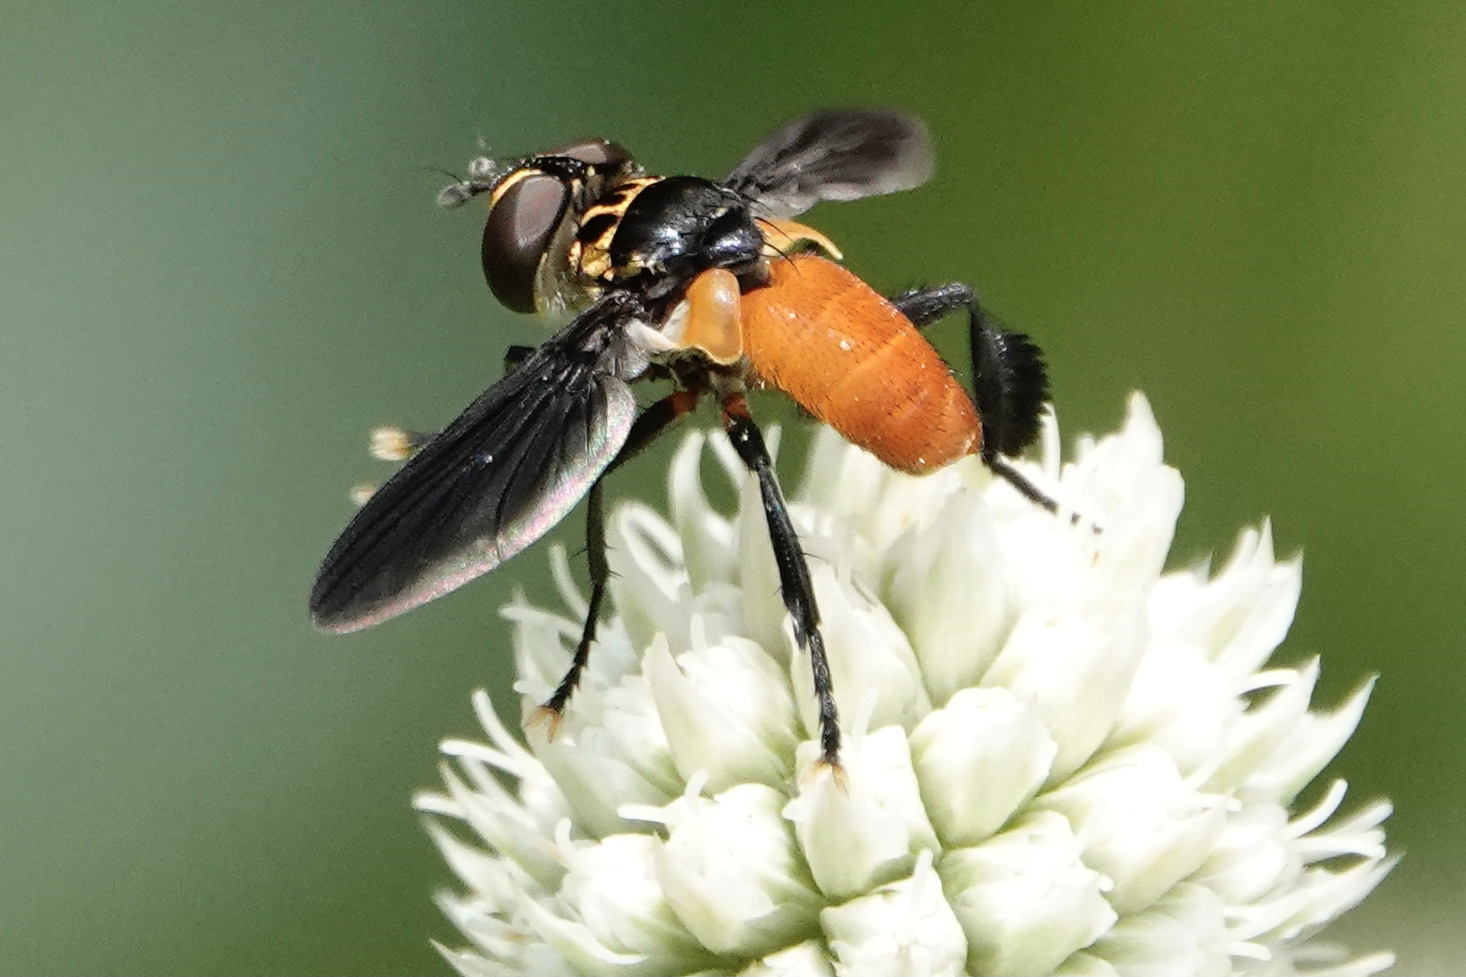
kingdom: Animalia
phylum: Arthropoda
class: Insecta
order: Diptera
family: Tachinidae
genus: Trichopoda
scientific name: Trichopoda pennipes
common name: Tachinid fly
